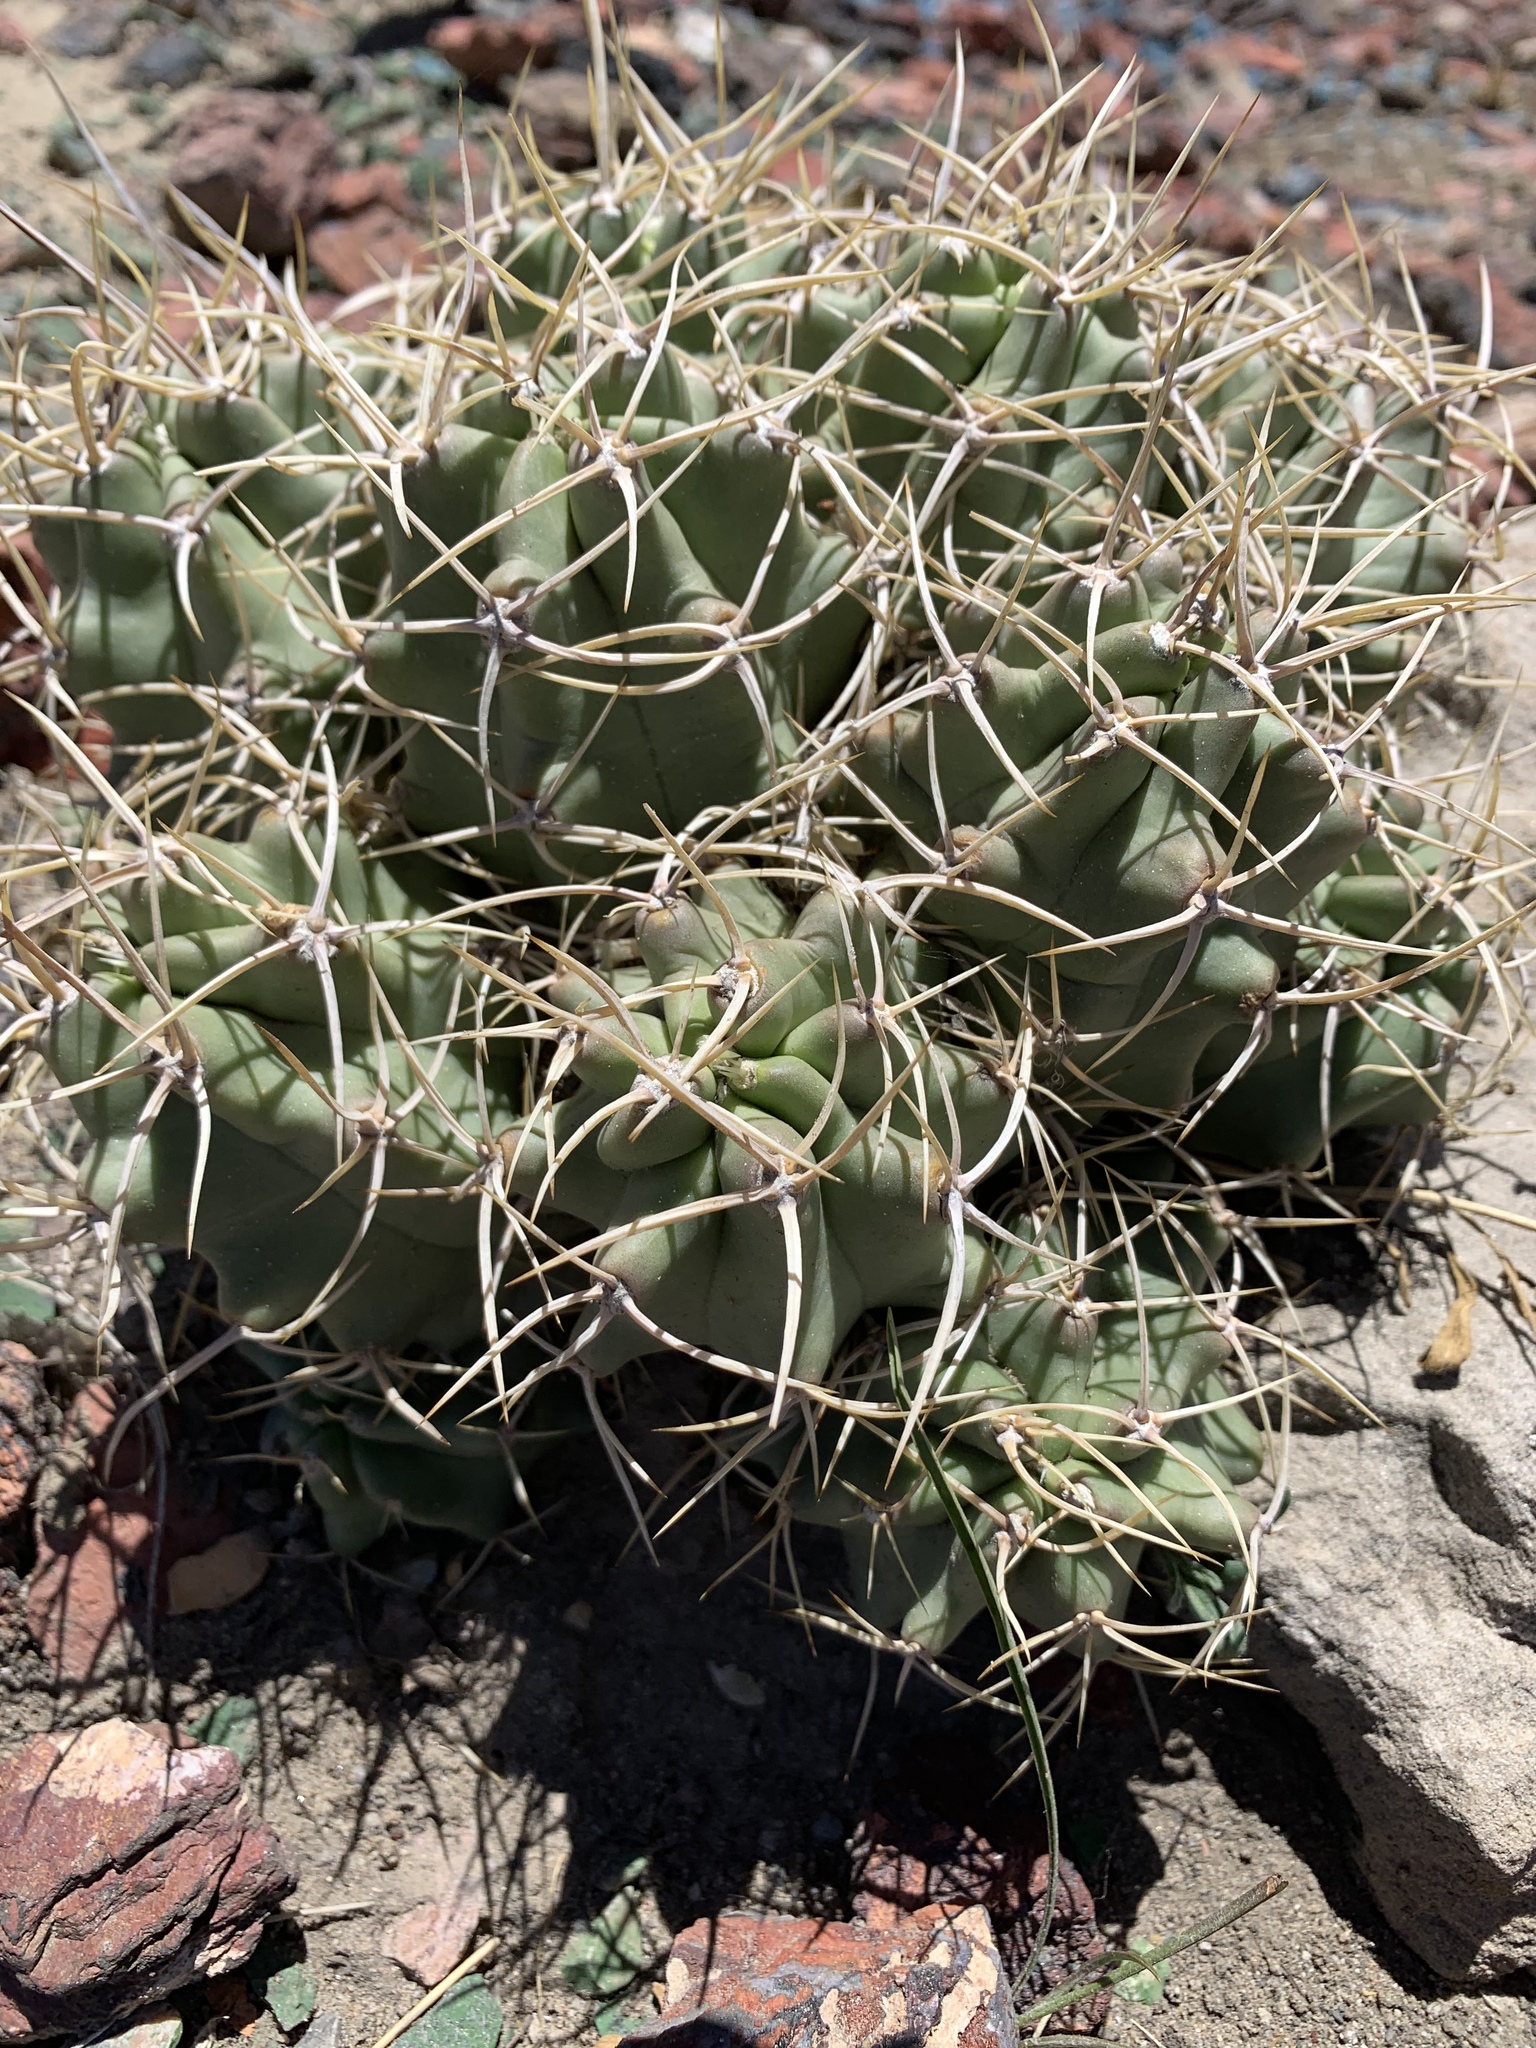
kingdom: Plantae
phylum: Tracheophyta
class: Magnoliopsida
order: Caryophyllales
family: Cactaceae
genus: Echinocereus
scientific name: Echinocereus triglochidiatus
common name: Claretcup hedgehog
